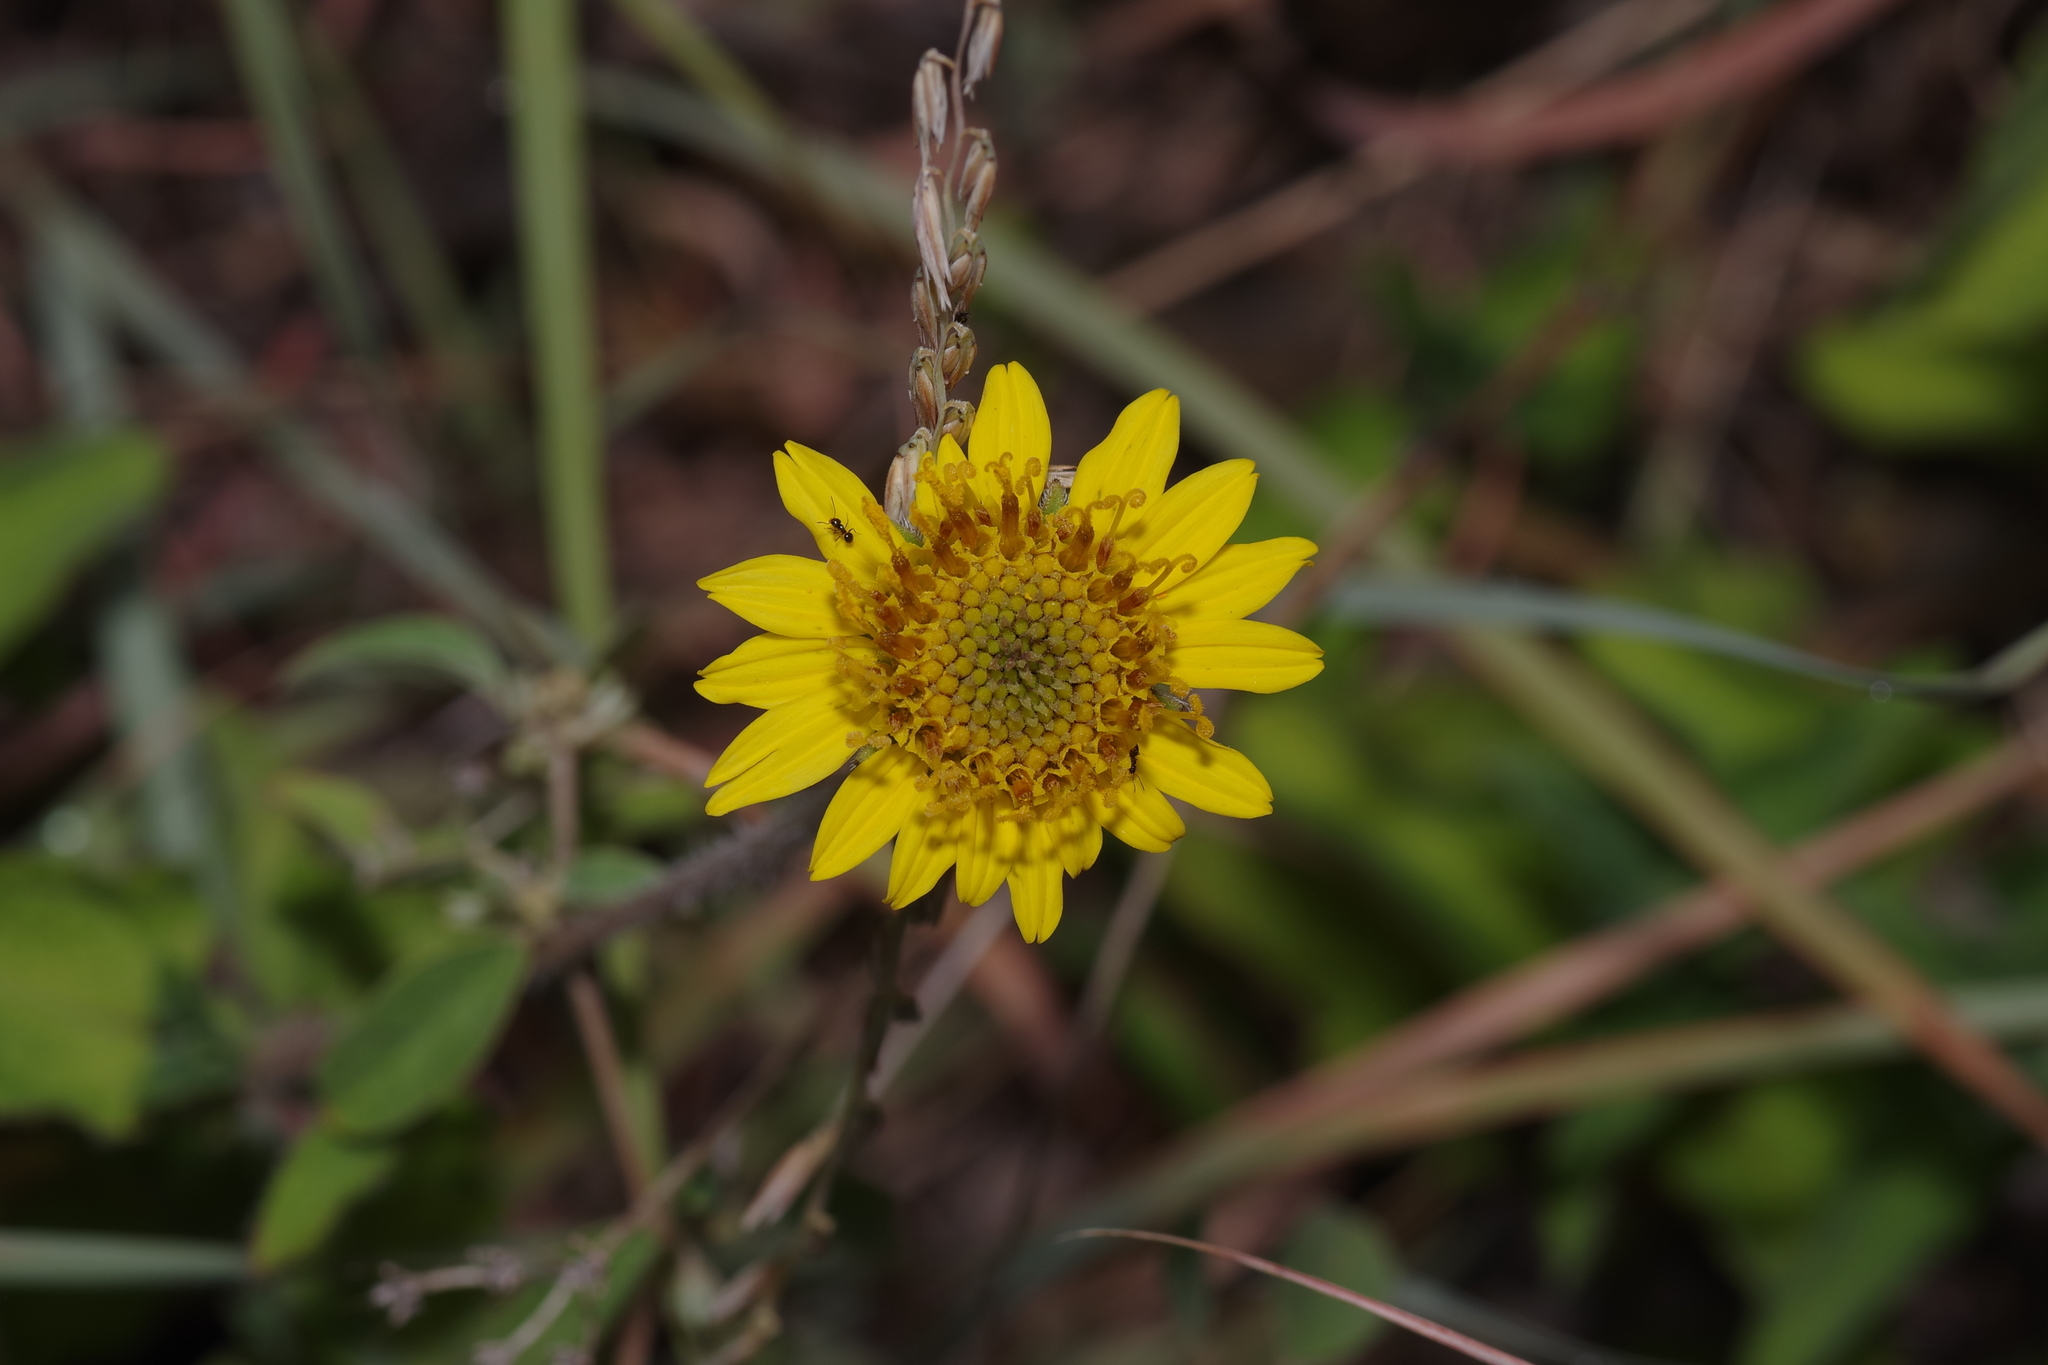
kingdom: Plantae
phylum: Tracheophyta
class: Magnoliopsida
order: Asterales
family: Asteraceae
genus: Simsia
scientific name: Simsia calva
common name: Awnless bush-sunflower
